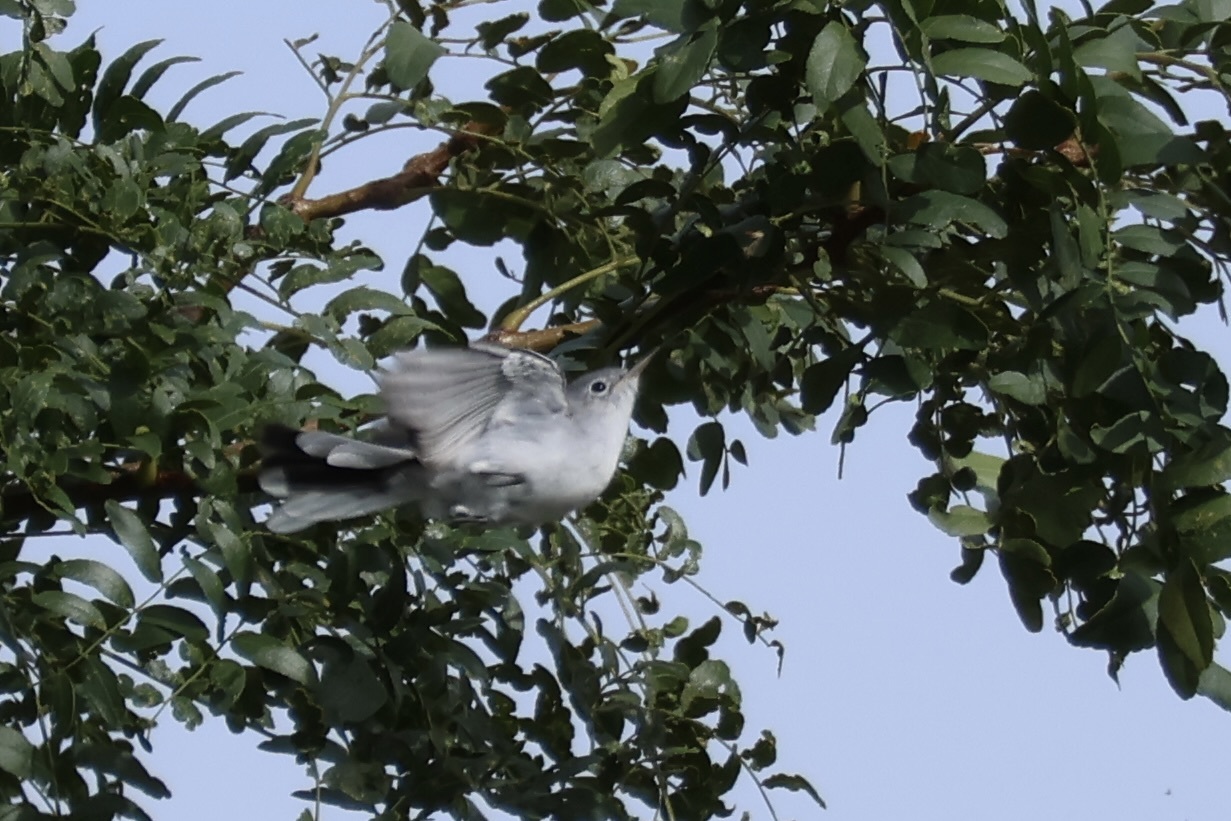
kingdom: Animalia
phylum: Chordata
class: Aves
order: Passeriformes
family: Polioptilidae
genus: Polioptila
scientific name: Polioptila caerulea
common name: Blue-gray gnatcatcher
